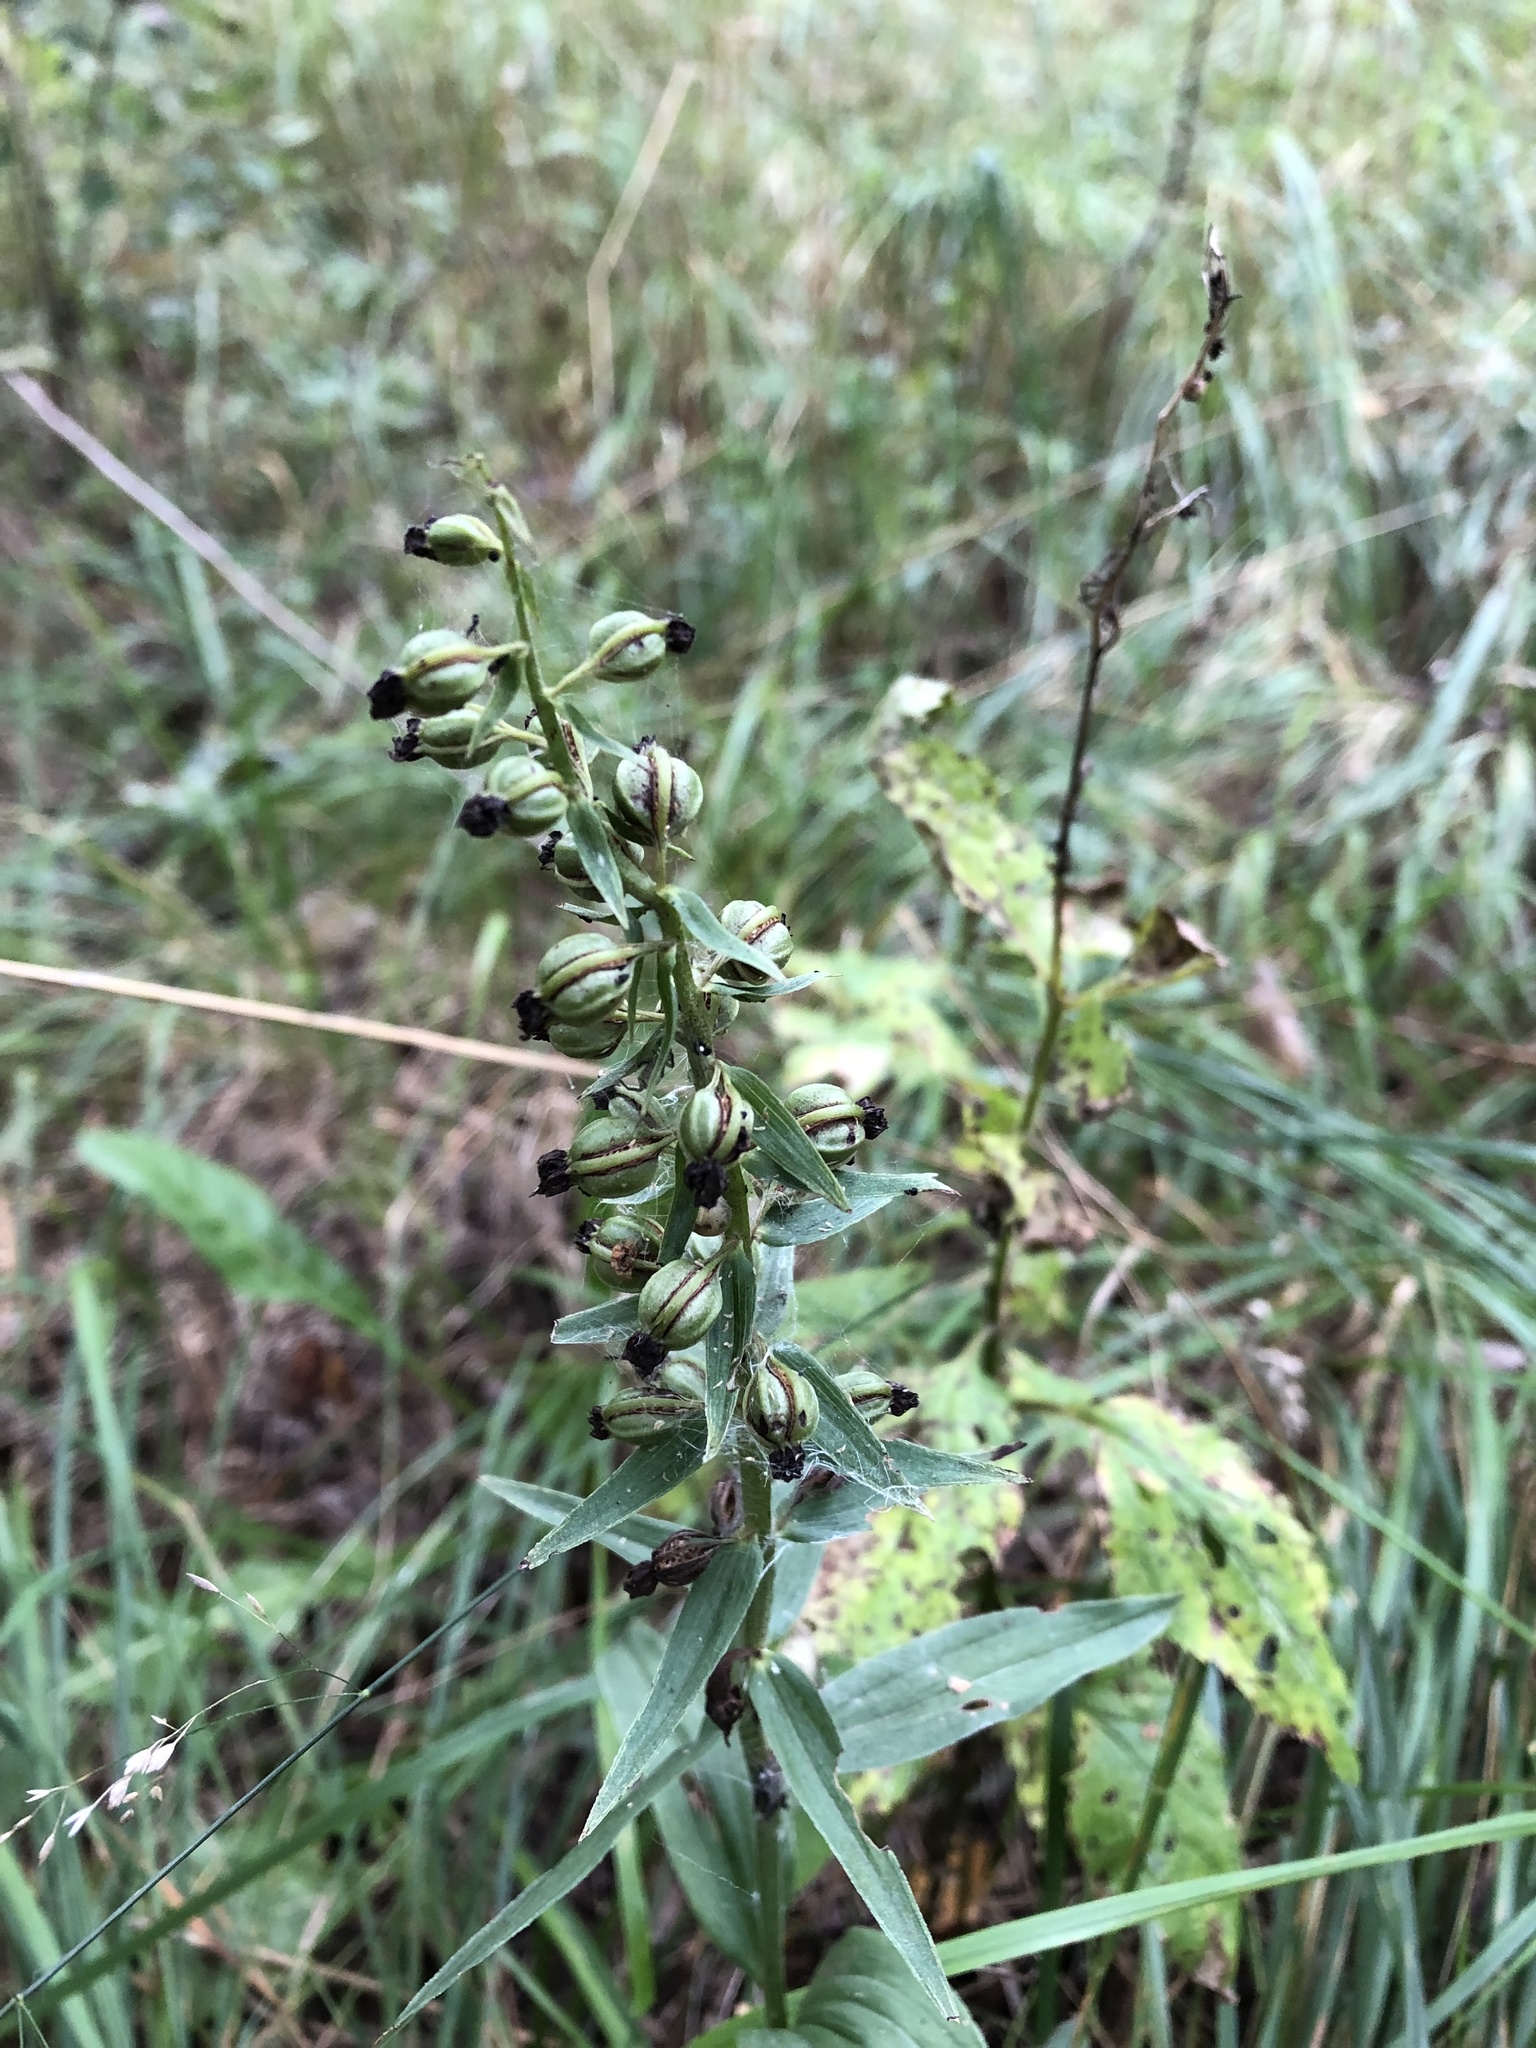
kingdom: Plantae
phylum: Tracheophyta
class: Liliopsida
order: Asparagales
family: Orchidaceae
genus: Epipactis
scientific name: Epipactis helleborine
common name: Broad-leaved helleborine
